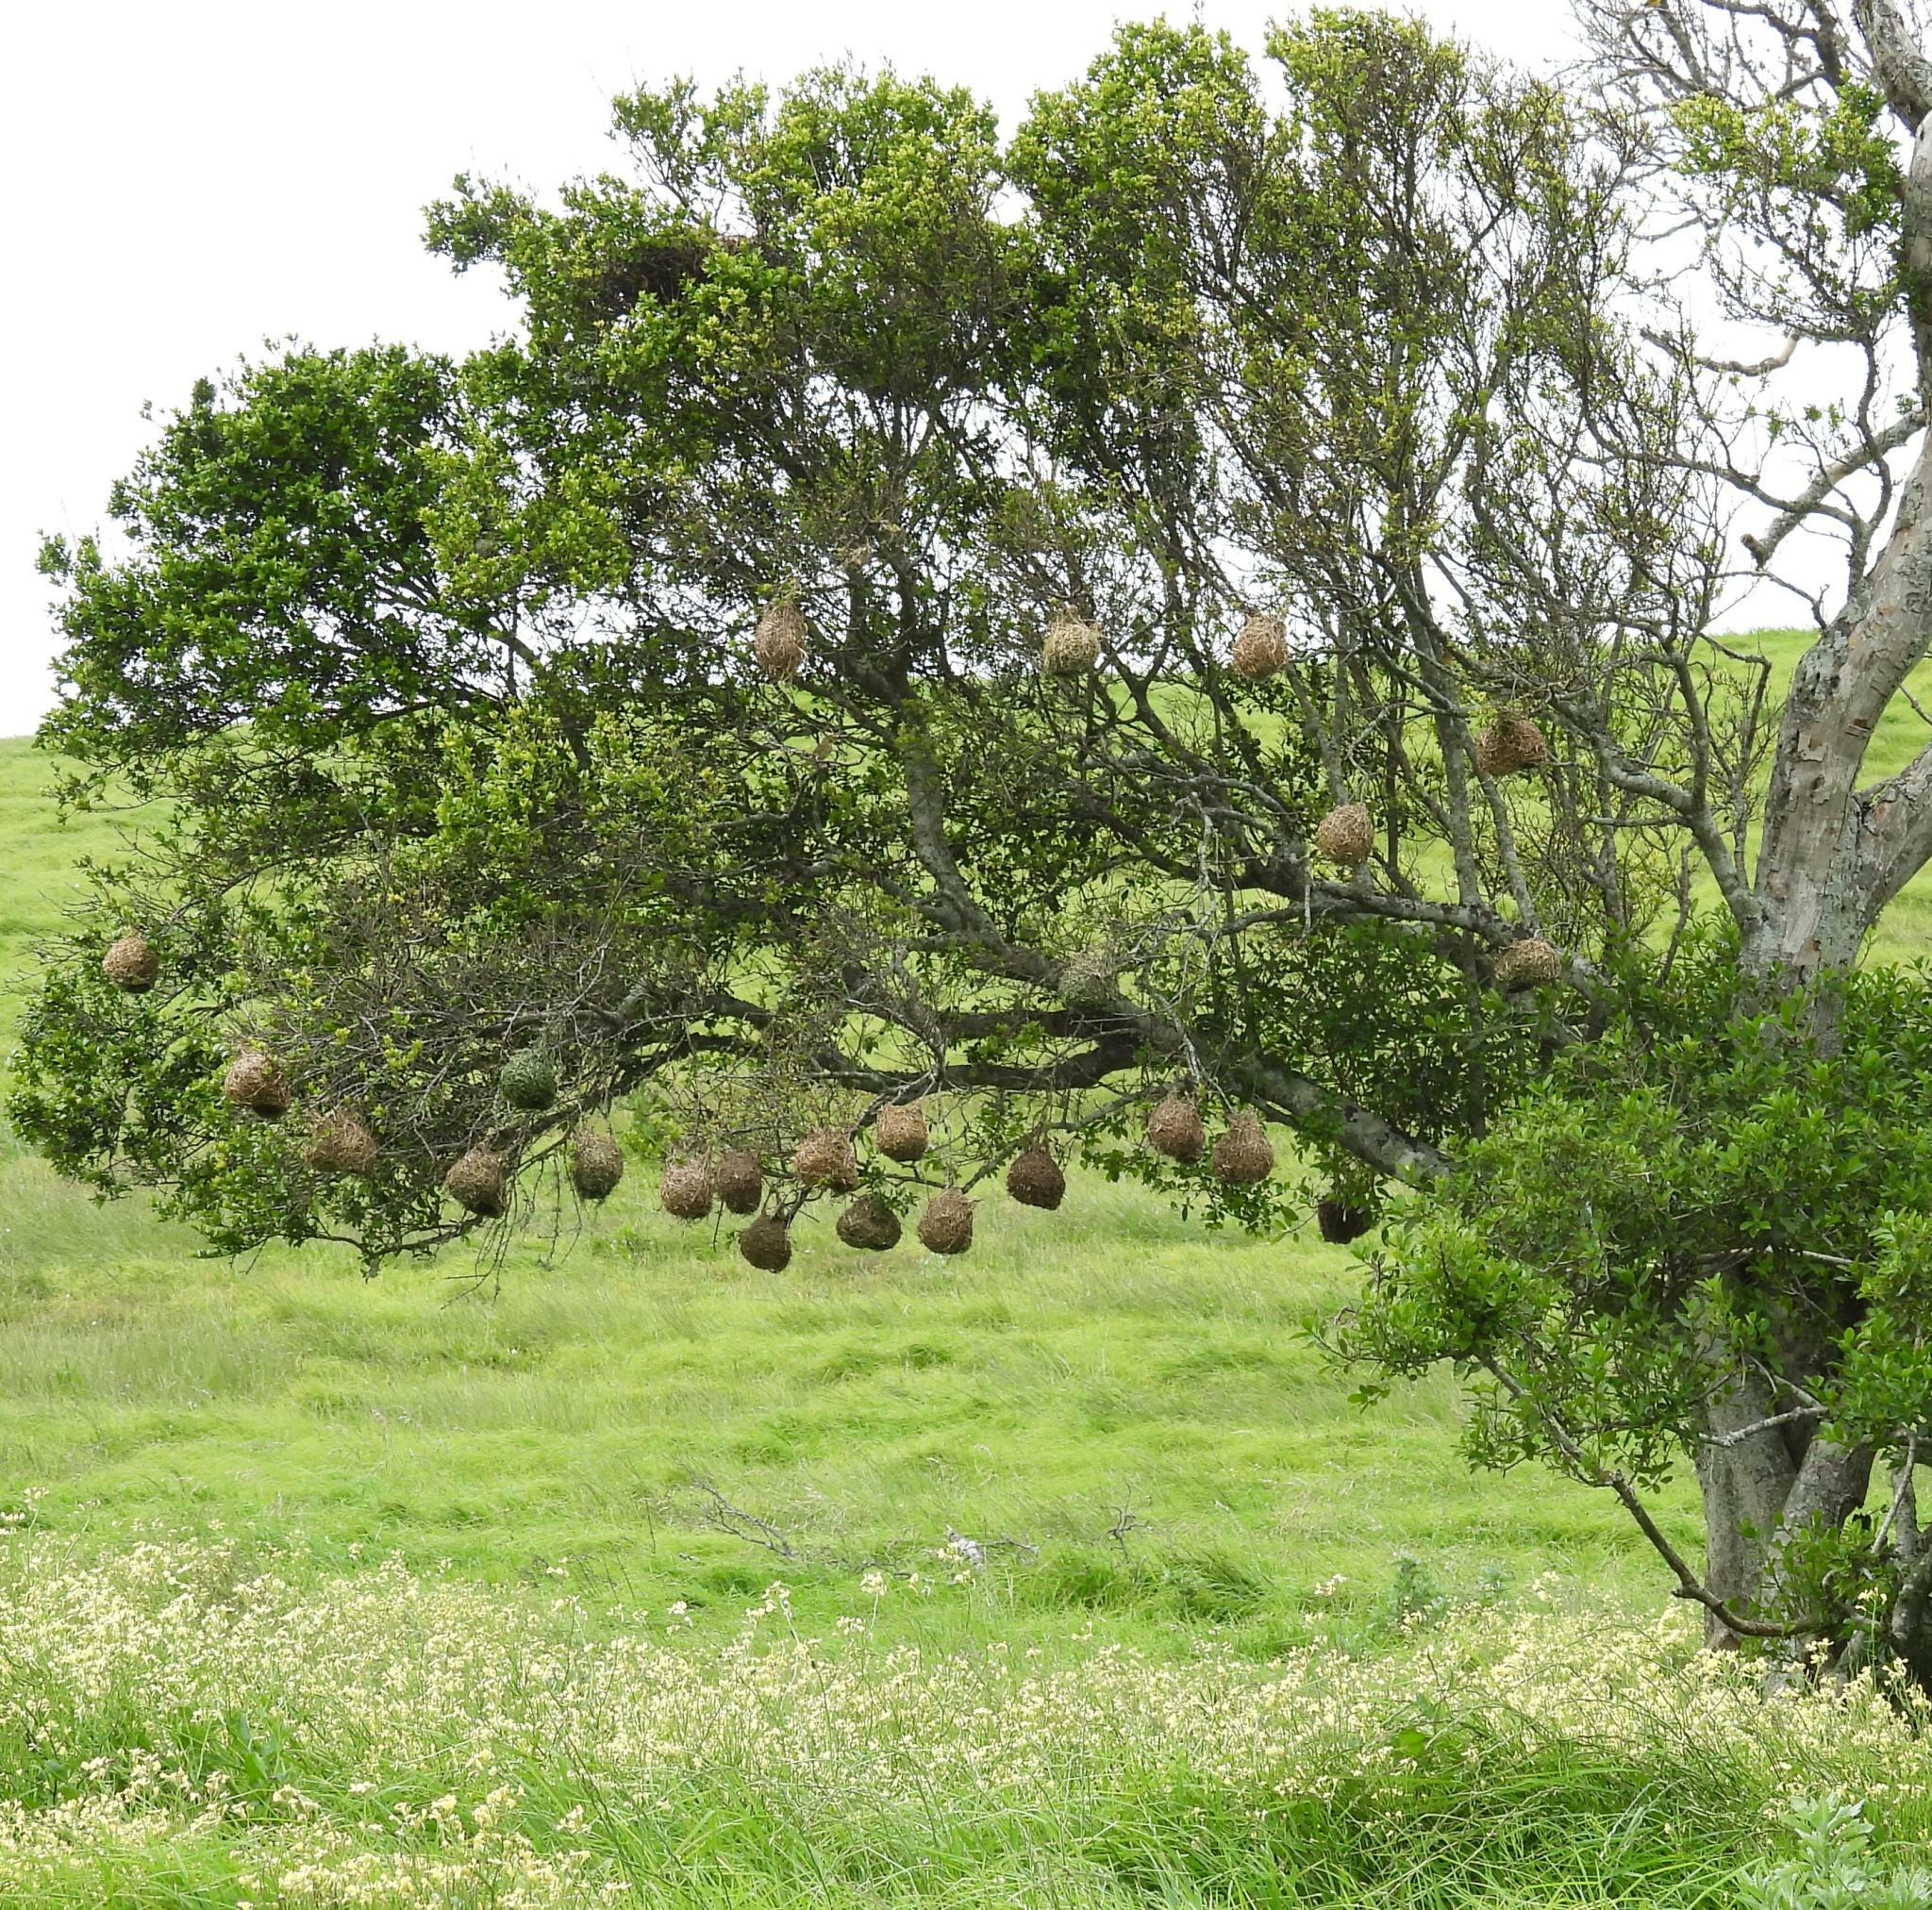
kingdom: Animalia
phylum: Chordata
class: Aves
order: Passeriformes
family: Ploceidae
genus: Ploceus
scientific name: Ploceus capensis
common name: Cape weaver
